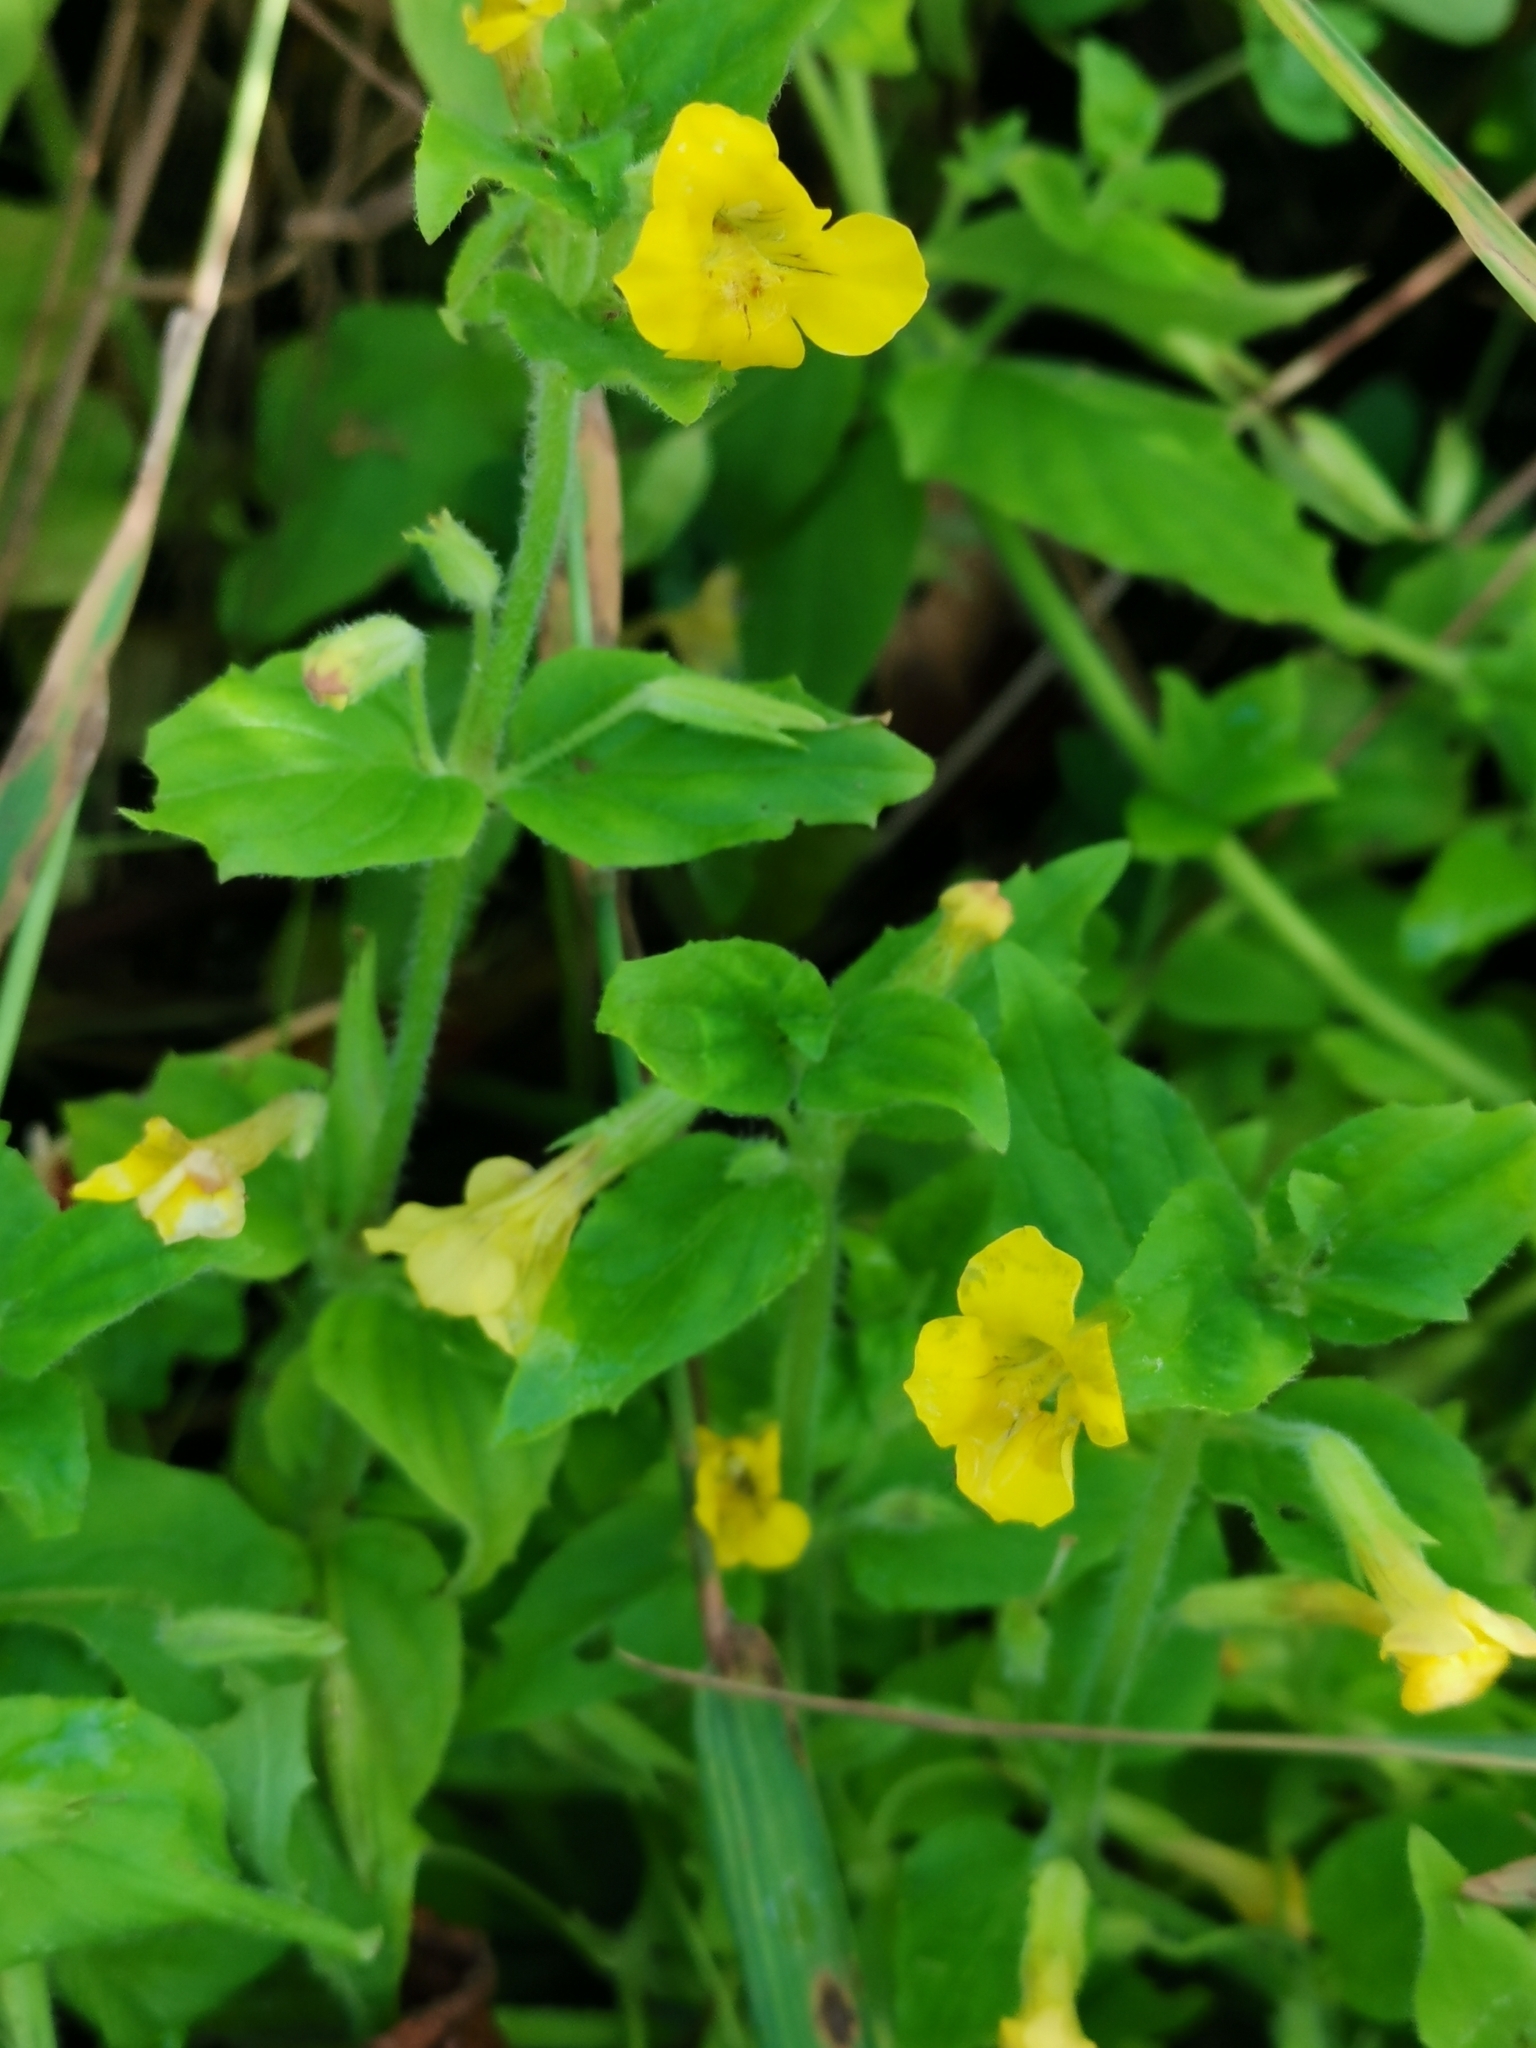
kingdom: Plantae
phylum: Tracheophyta
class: Magnoliopsida
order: Lamiales
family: Phrymaceae
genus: Erythranthe
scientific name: Erythranthe moschata
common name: Muskflower
